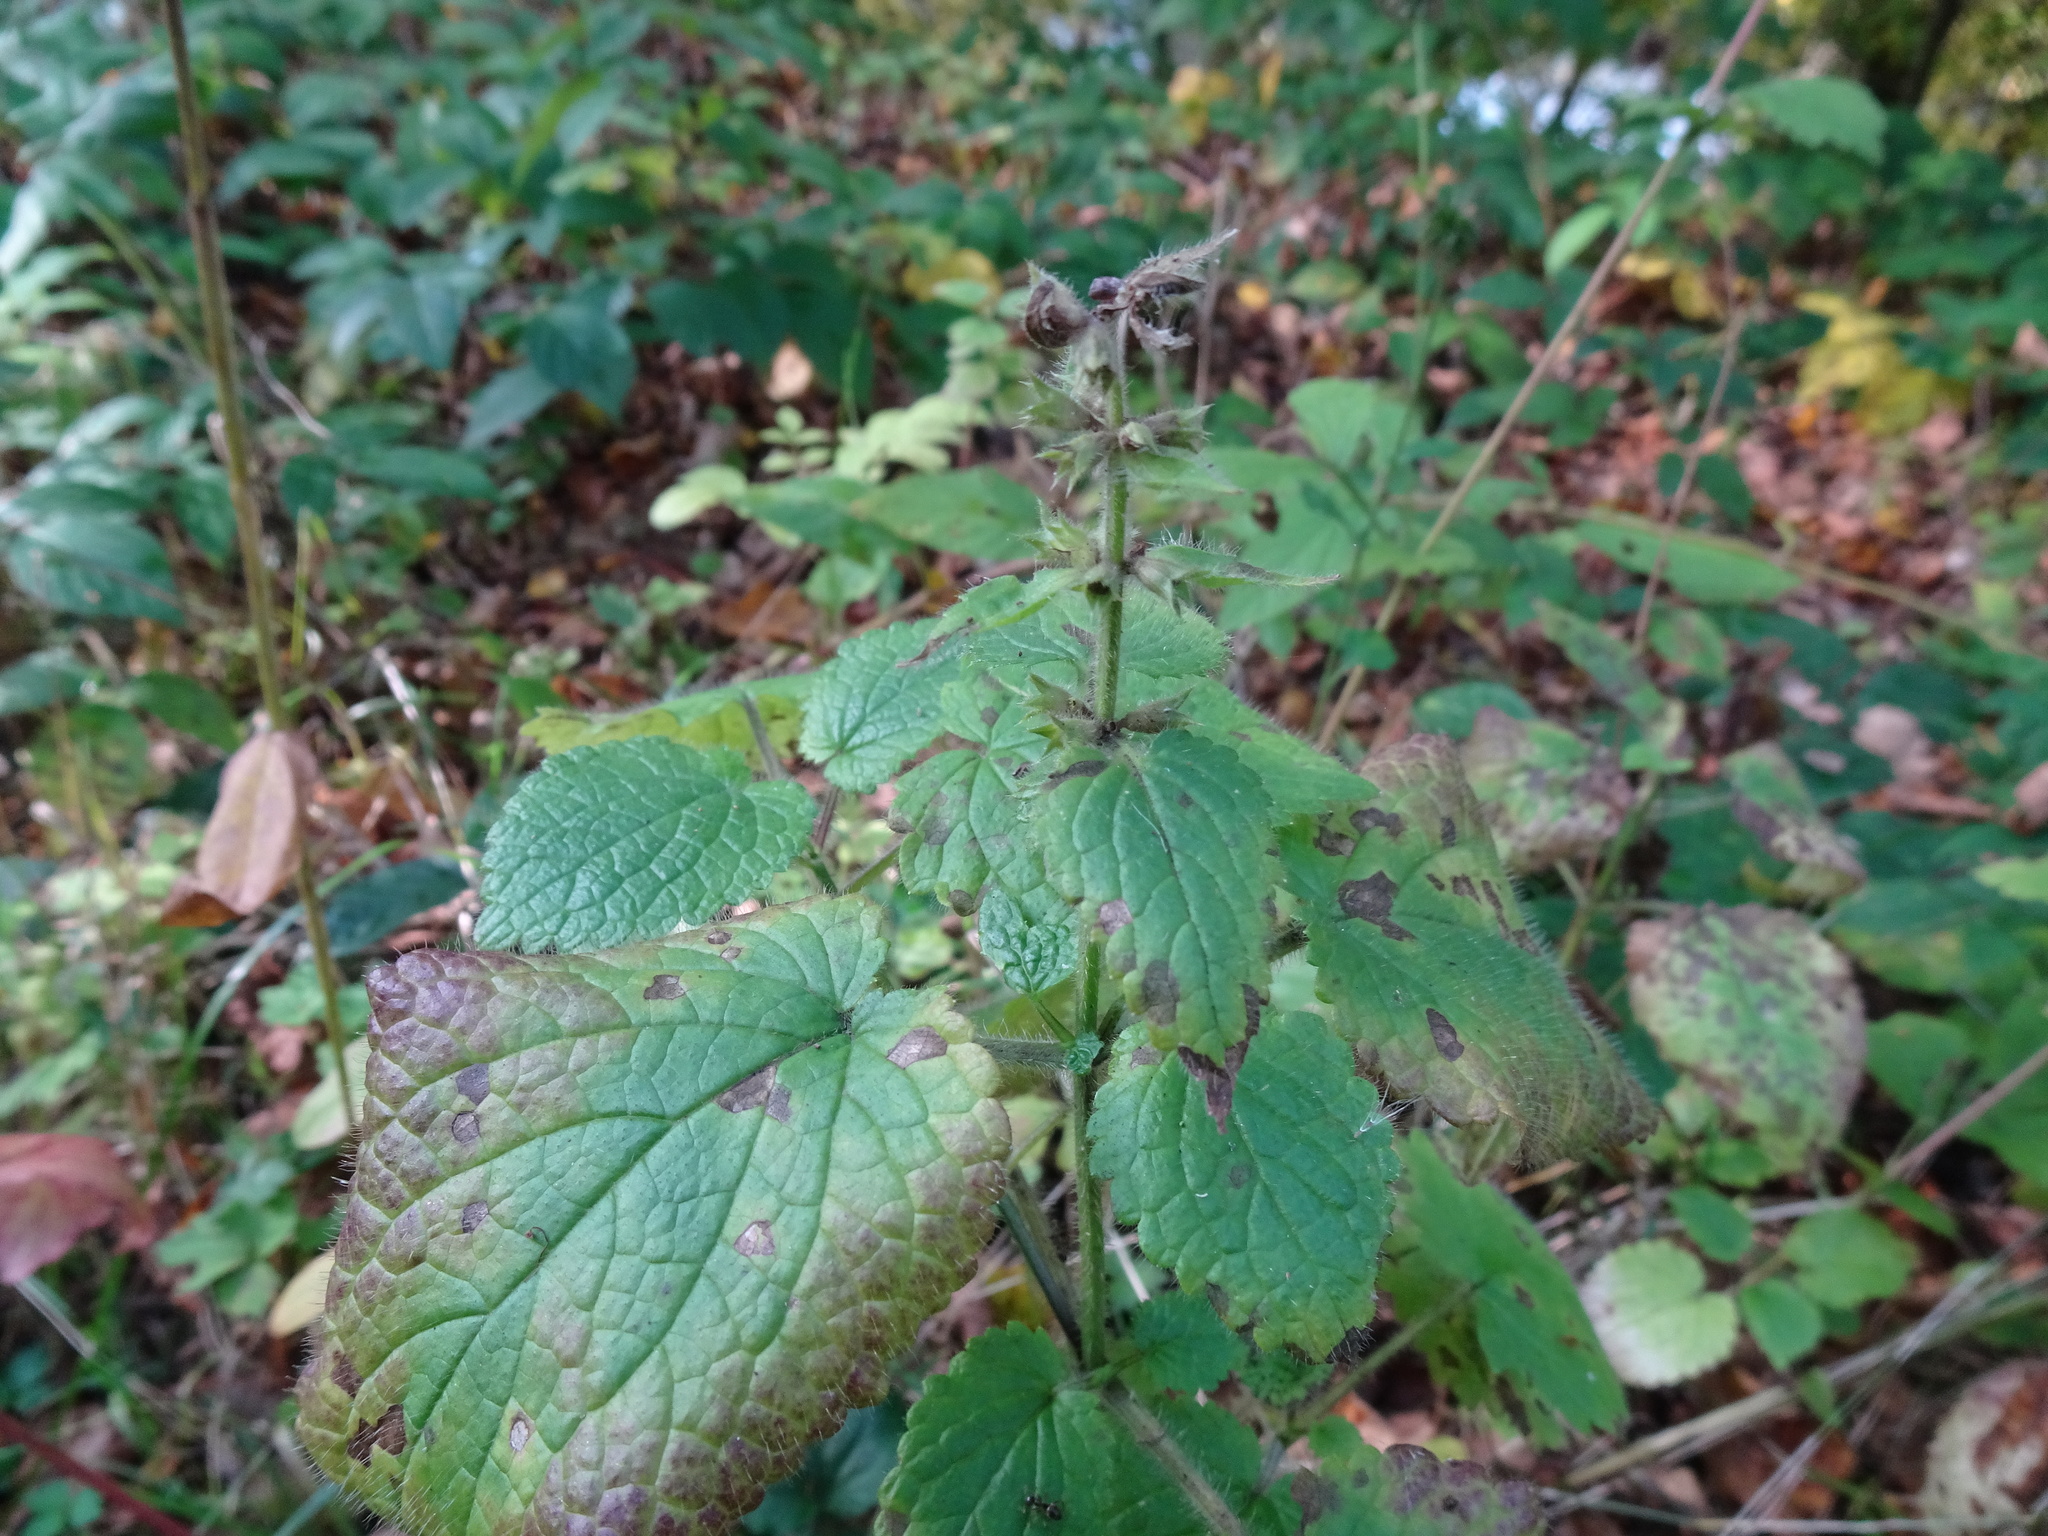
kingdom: Plantae
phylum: Tracheophyta
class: Magnoliopsida
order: Lamiales
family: Lamiaceae
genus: Stachys
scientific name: Stachys sylvatica
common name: Hedge woundwort
